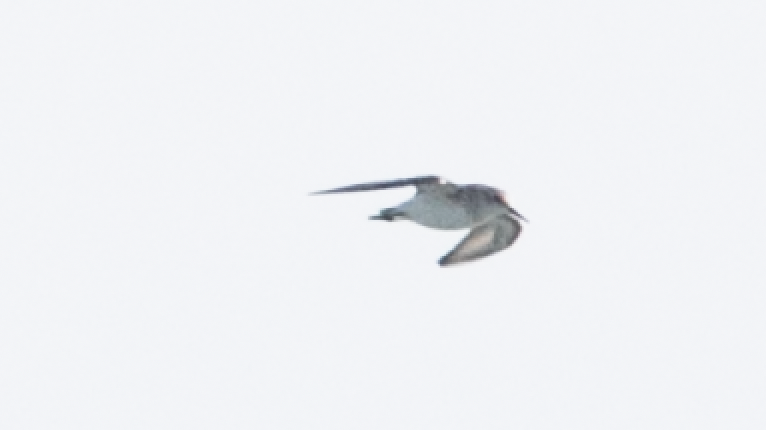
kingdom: Animalia
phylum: Chordata
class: Aves
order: Charadriiformes
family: Scolopacidae
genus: Calidris
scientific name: Calidris minuta
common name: Little stint
